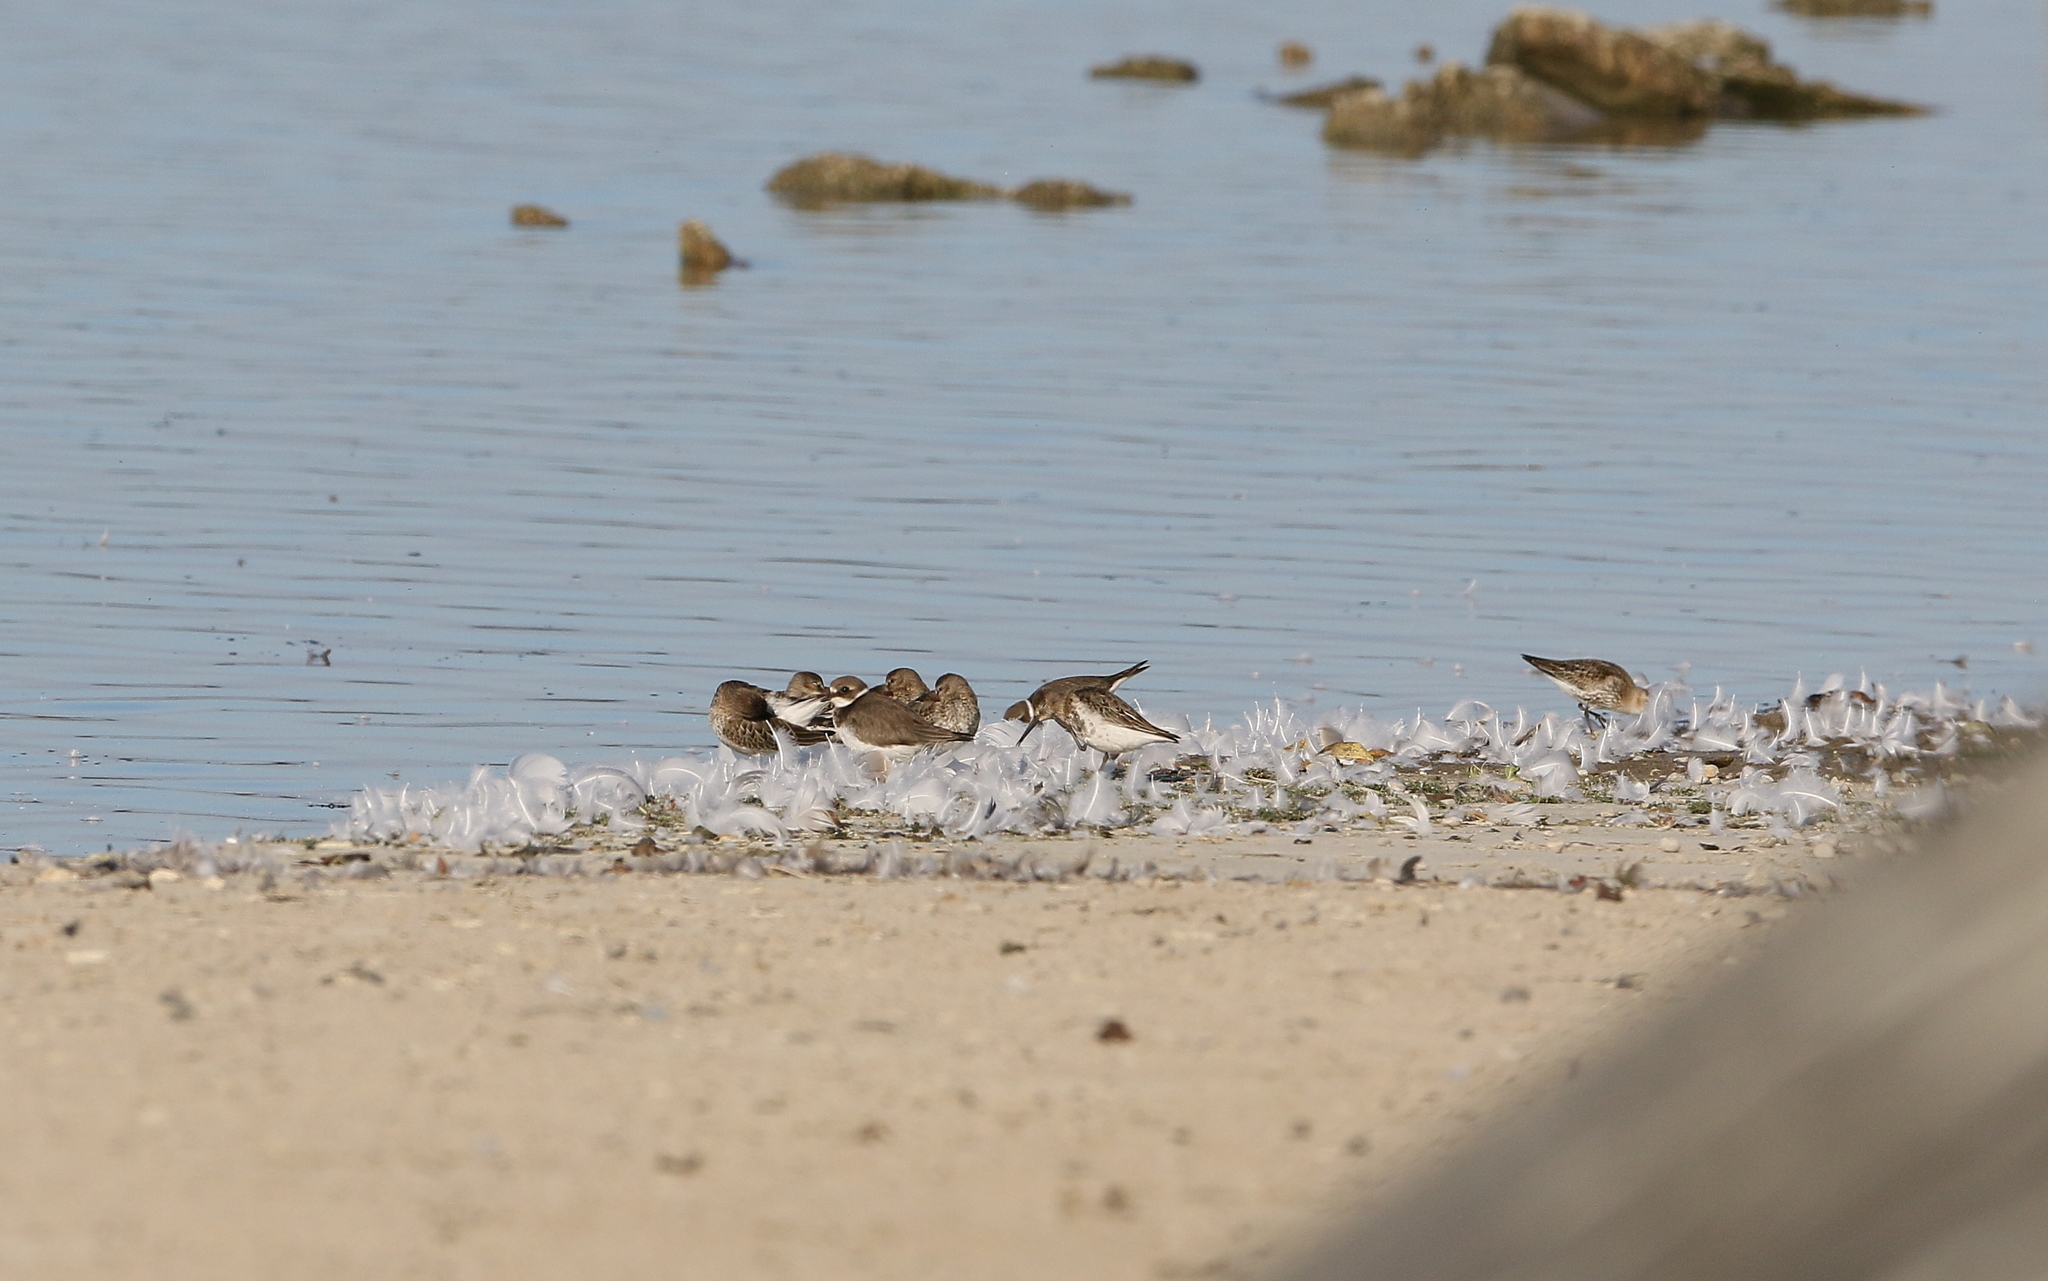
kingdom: Animalia
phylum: Chordata
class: Aves
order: Charadriiformes
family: Charadriidae
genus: Charadrius
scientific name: Charadrius hiaticula
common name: Common ringed plover
